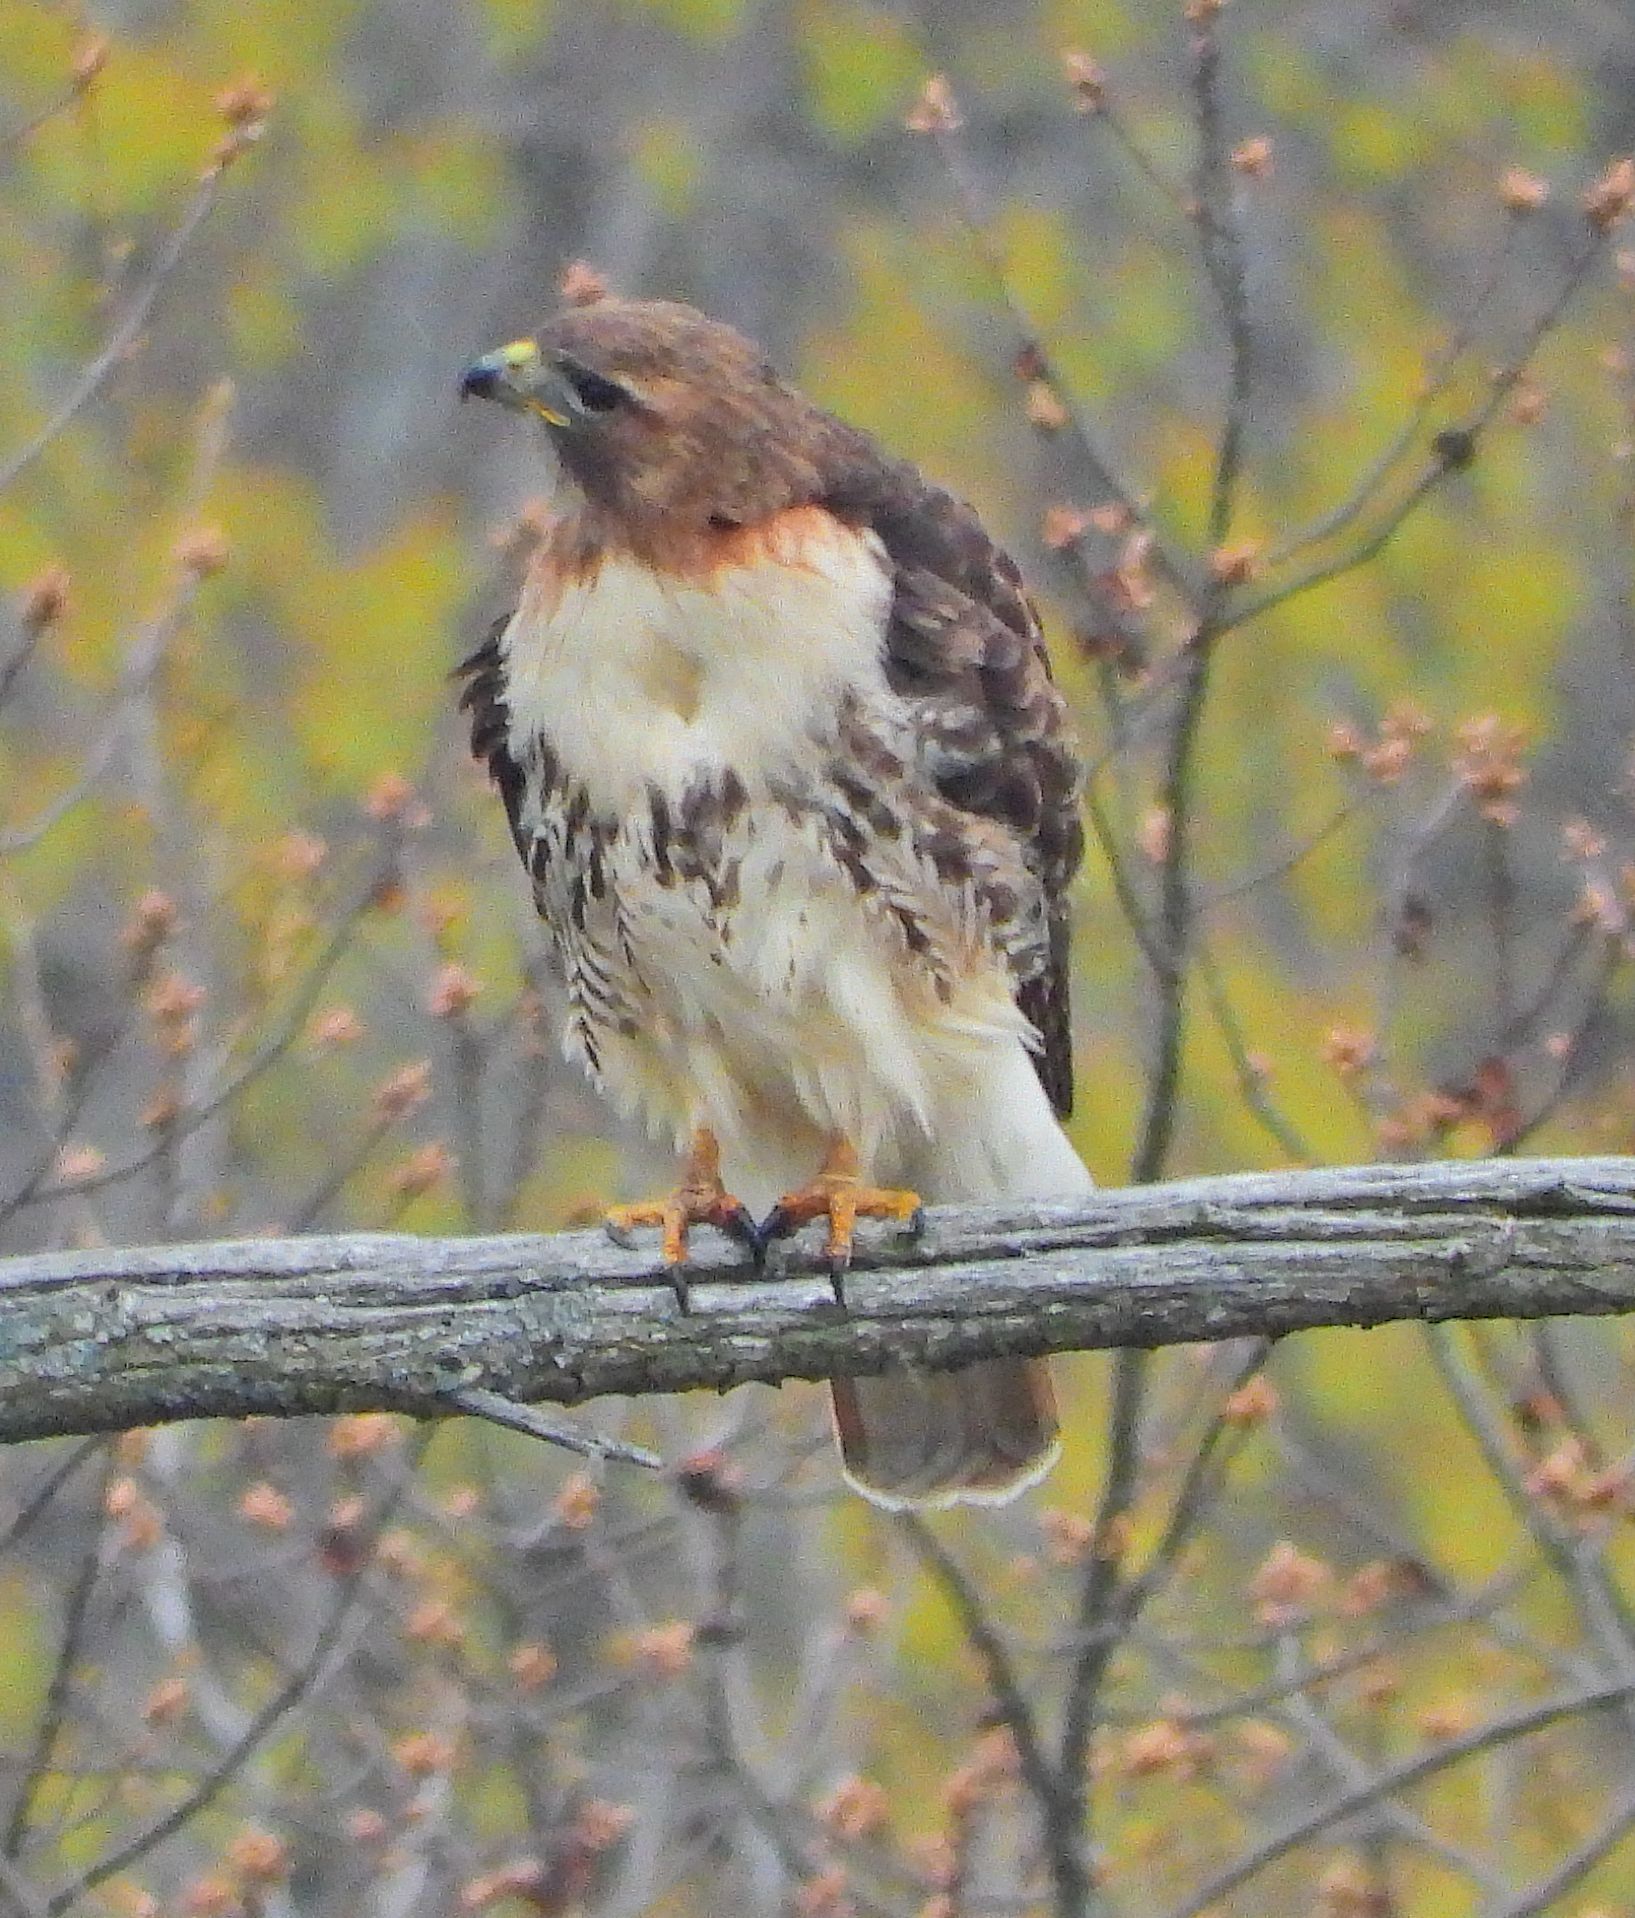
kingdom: Animalia
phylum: Chordata
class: Aves
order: Accipitriformes
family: Accipitridae
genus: Buteo
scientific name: Buteo jamaicensis
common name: Red-tailed hawk
